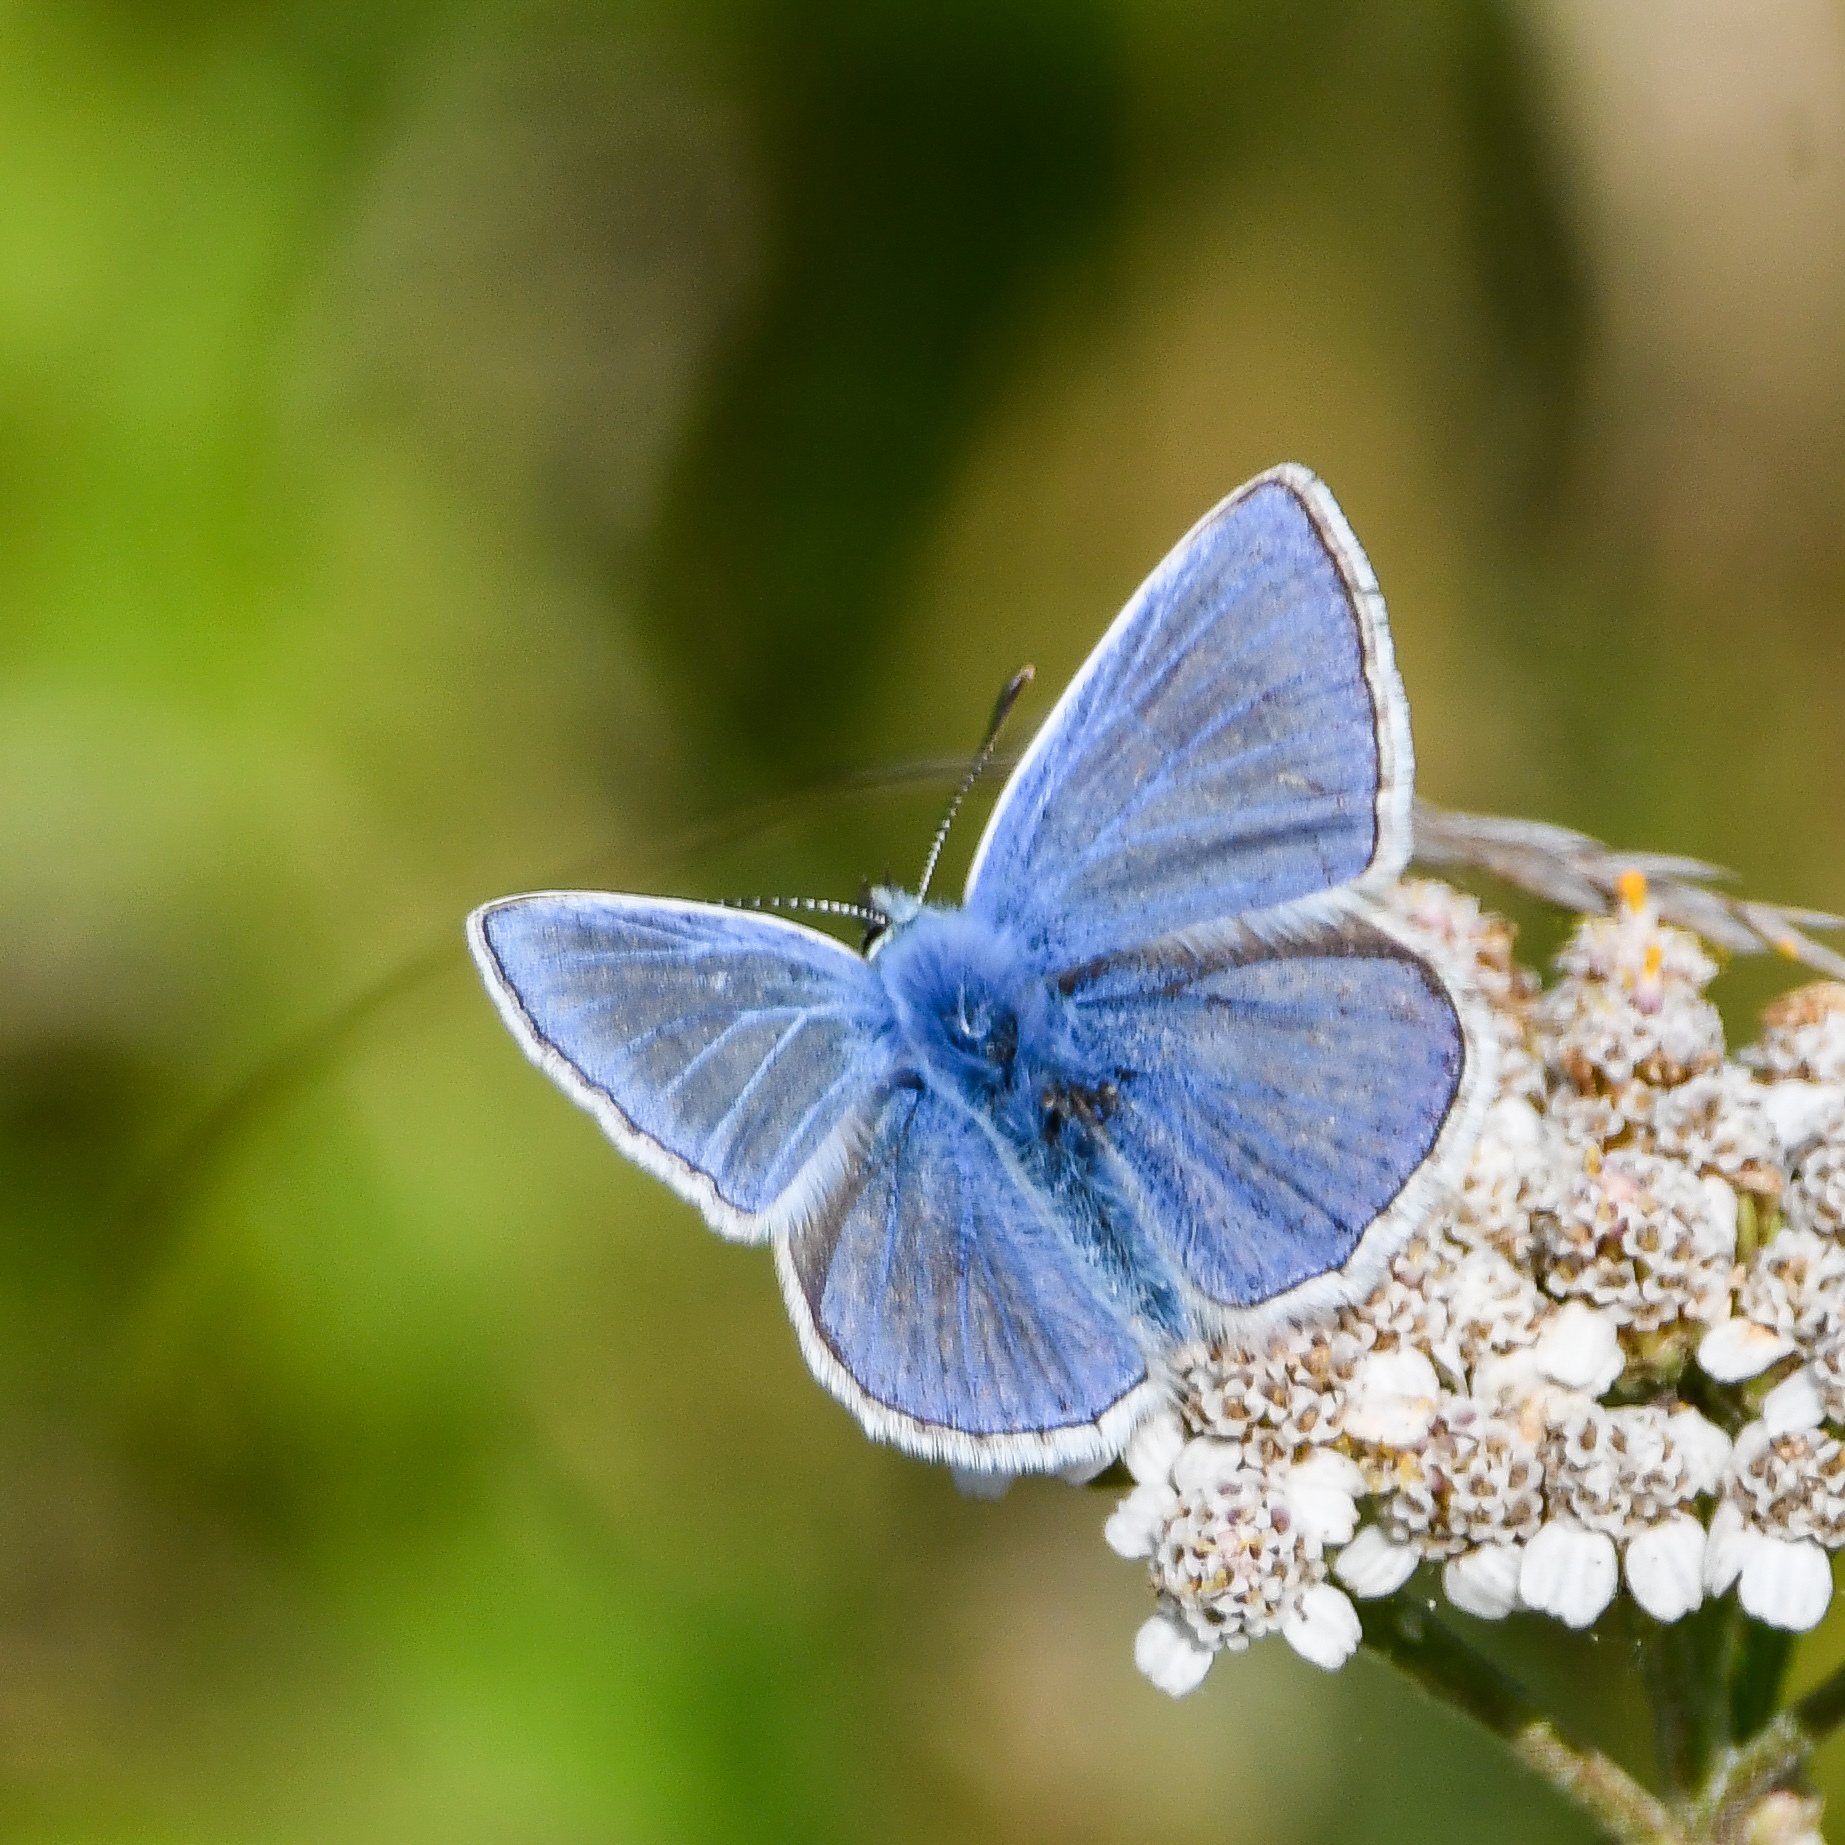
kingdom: Animalia
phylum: Arthropoda
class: Insecta
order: Lepidoptera
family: Lycaenidae
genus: Polyommatus
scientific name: Polyommatus icarus
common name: Common blue
